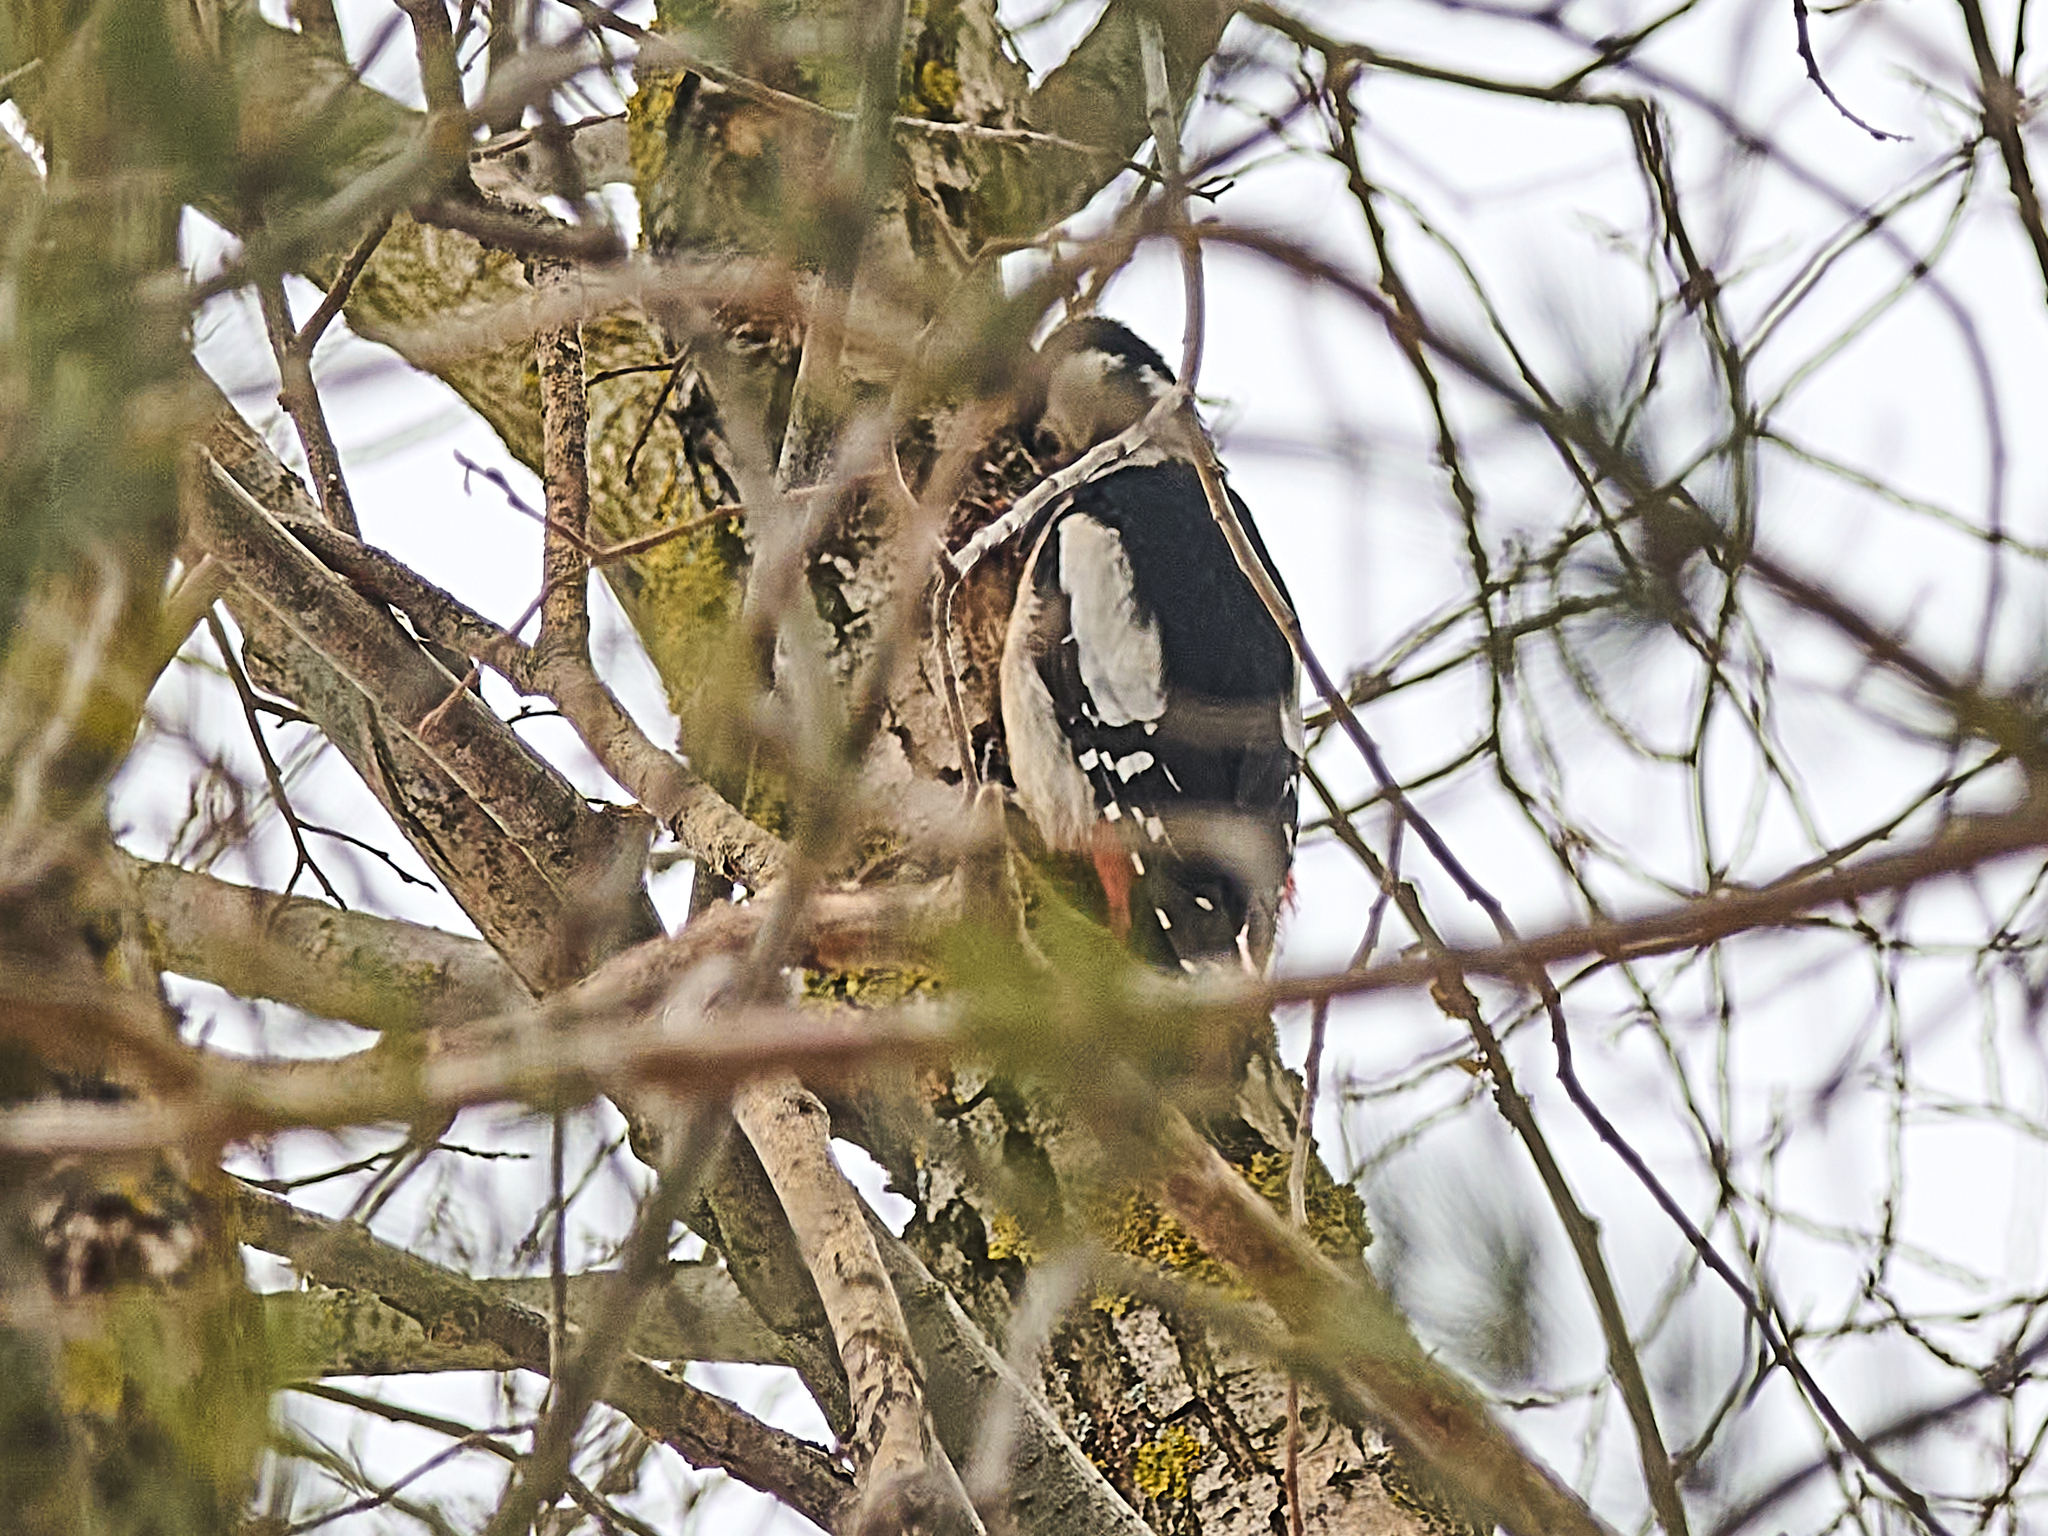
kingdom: Animalia
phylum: Chordata
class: Aves
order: Piciformes
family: Picidae
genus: Dendrocopos
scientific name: Dendrocopos major
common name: Great spotted woodpecker
